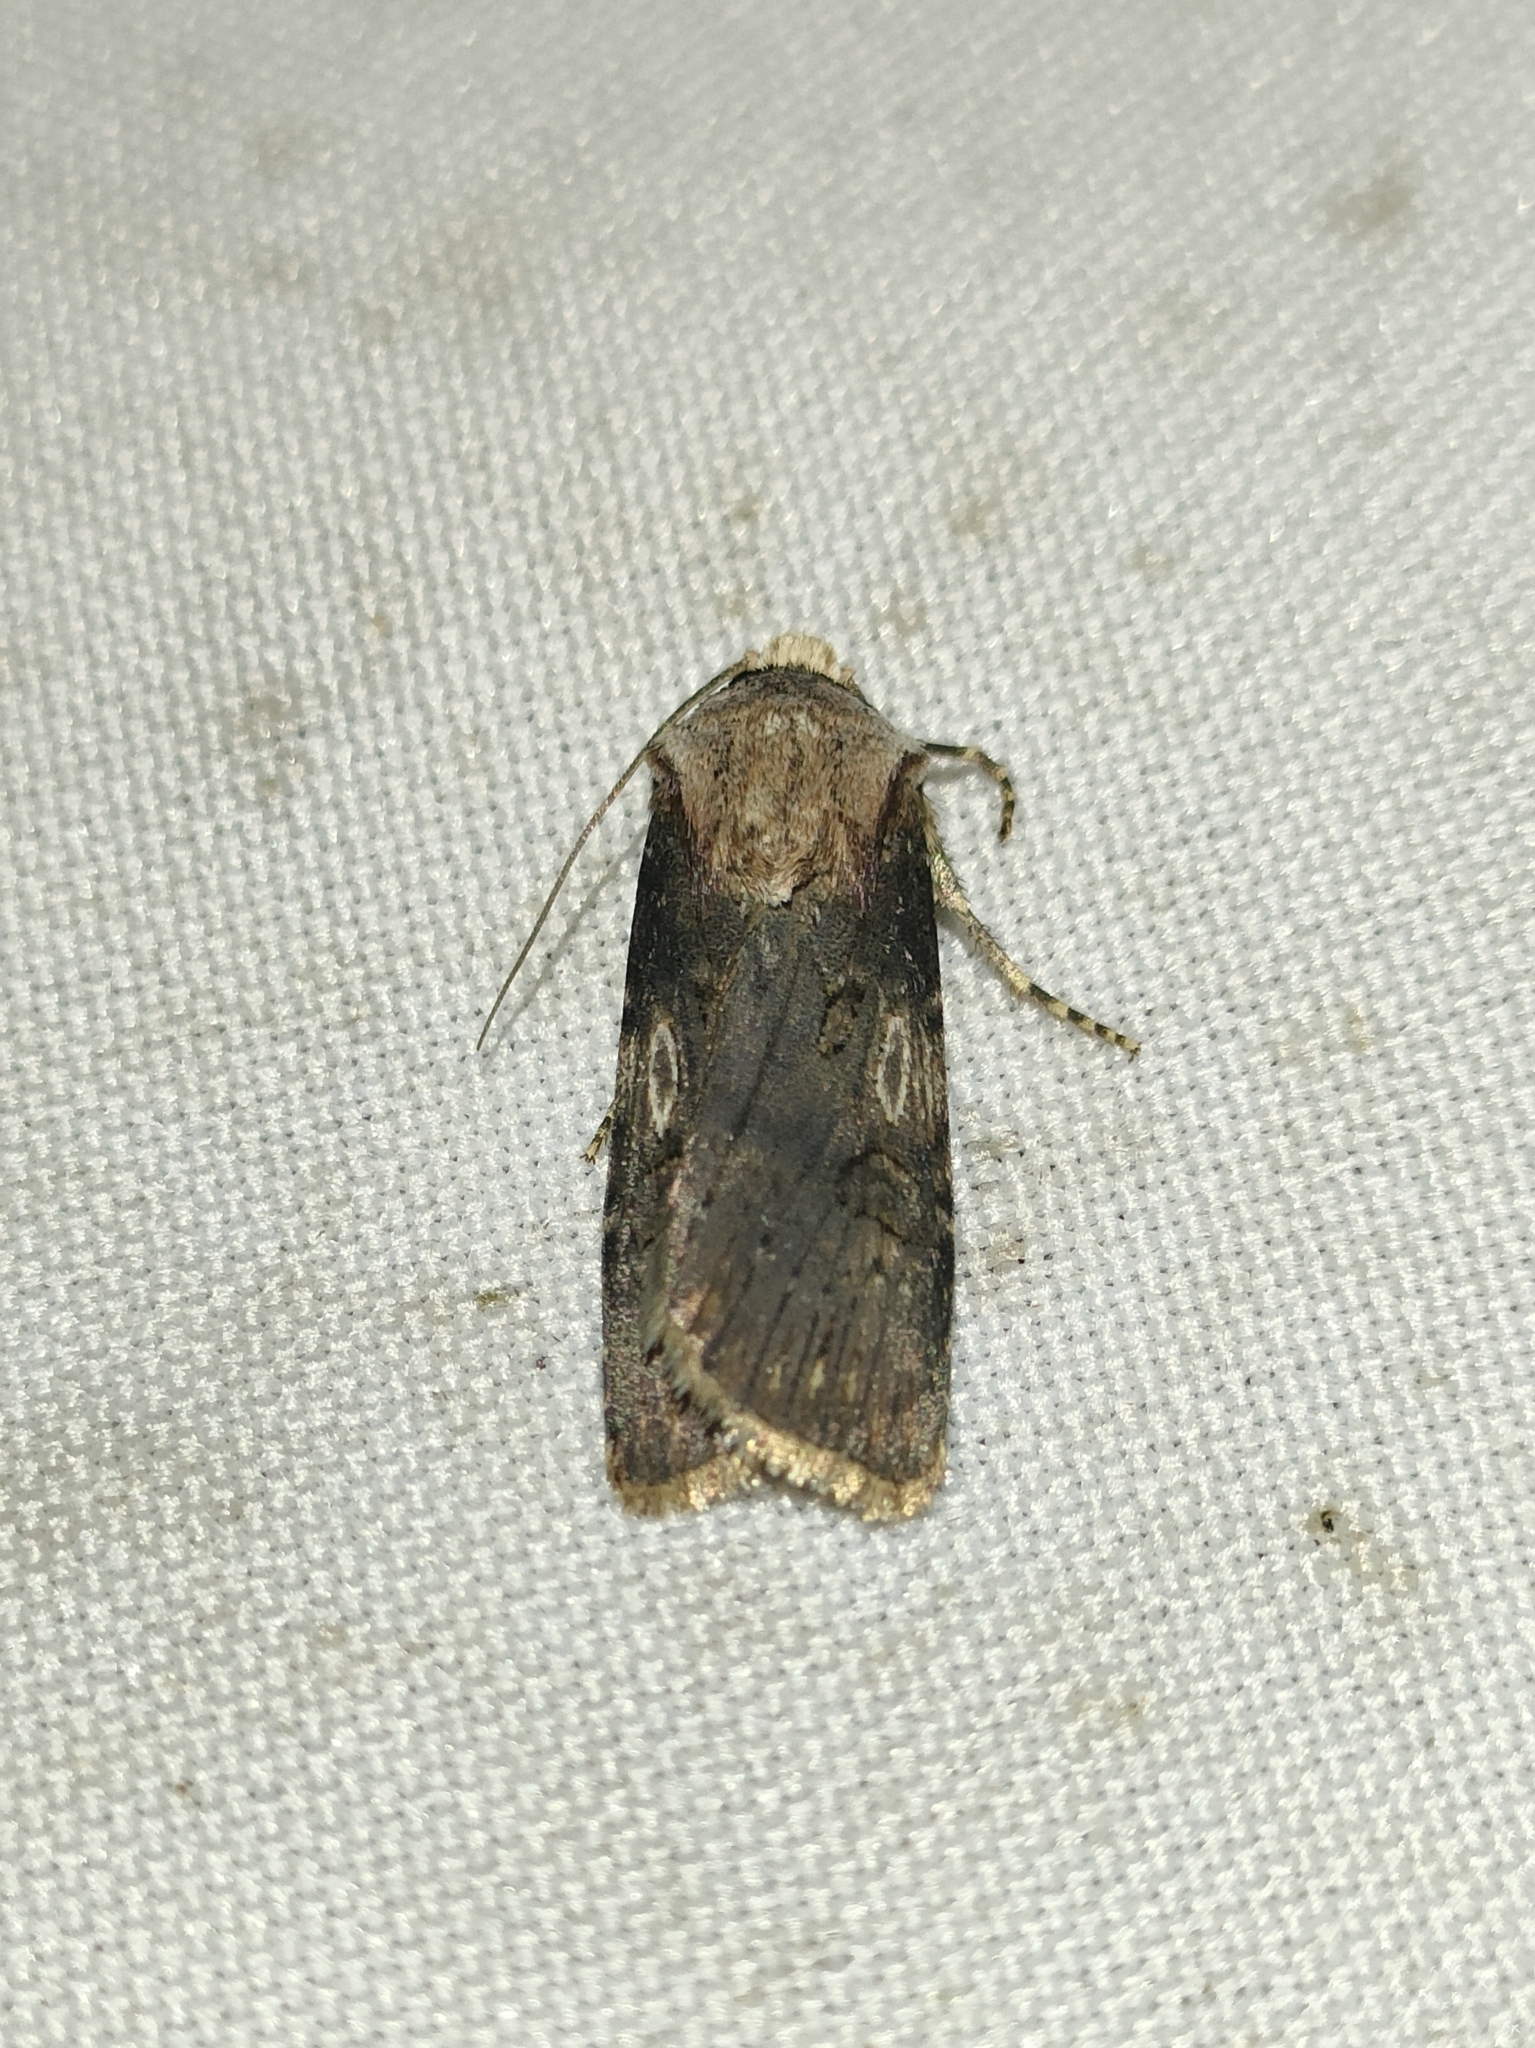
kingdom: Animalia
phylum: Arthropoda
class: Insecta
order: Lepidoptera
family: Noctuidae
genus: Agrotis
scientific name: Agrotis puta
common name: Shuttle-shaped dart
